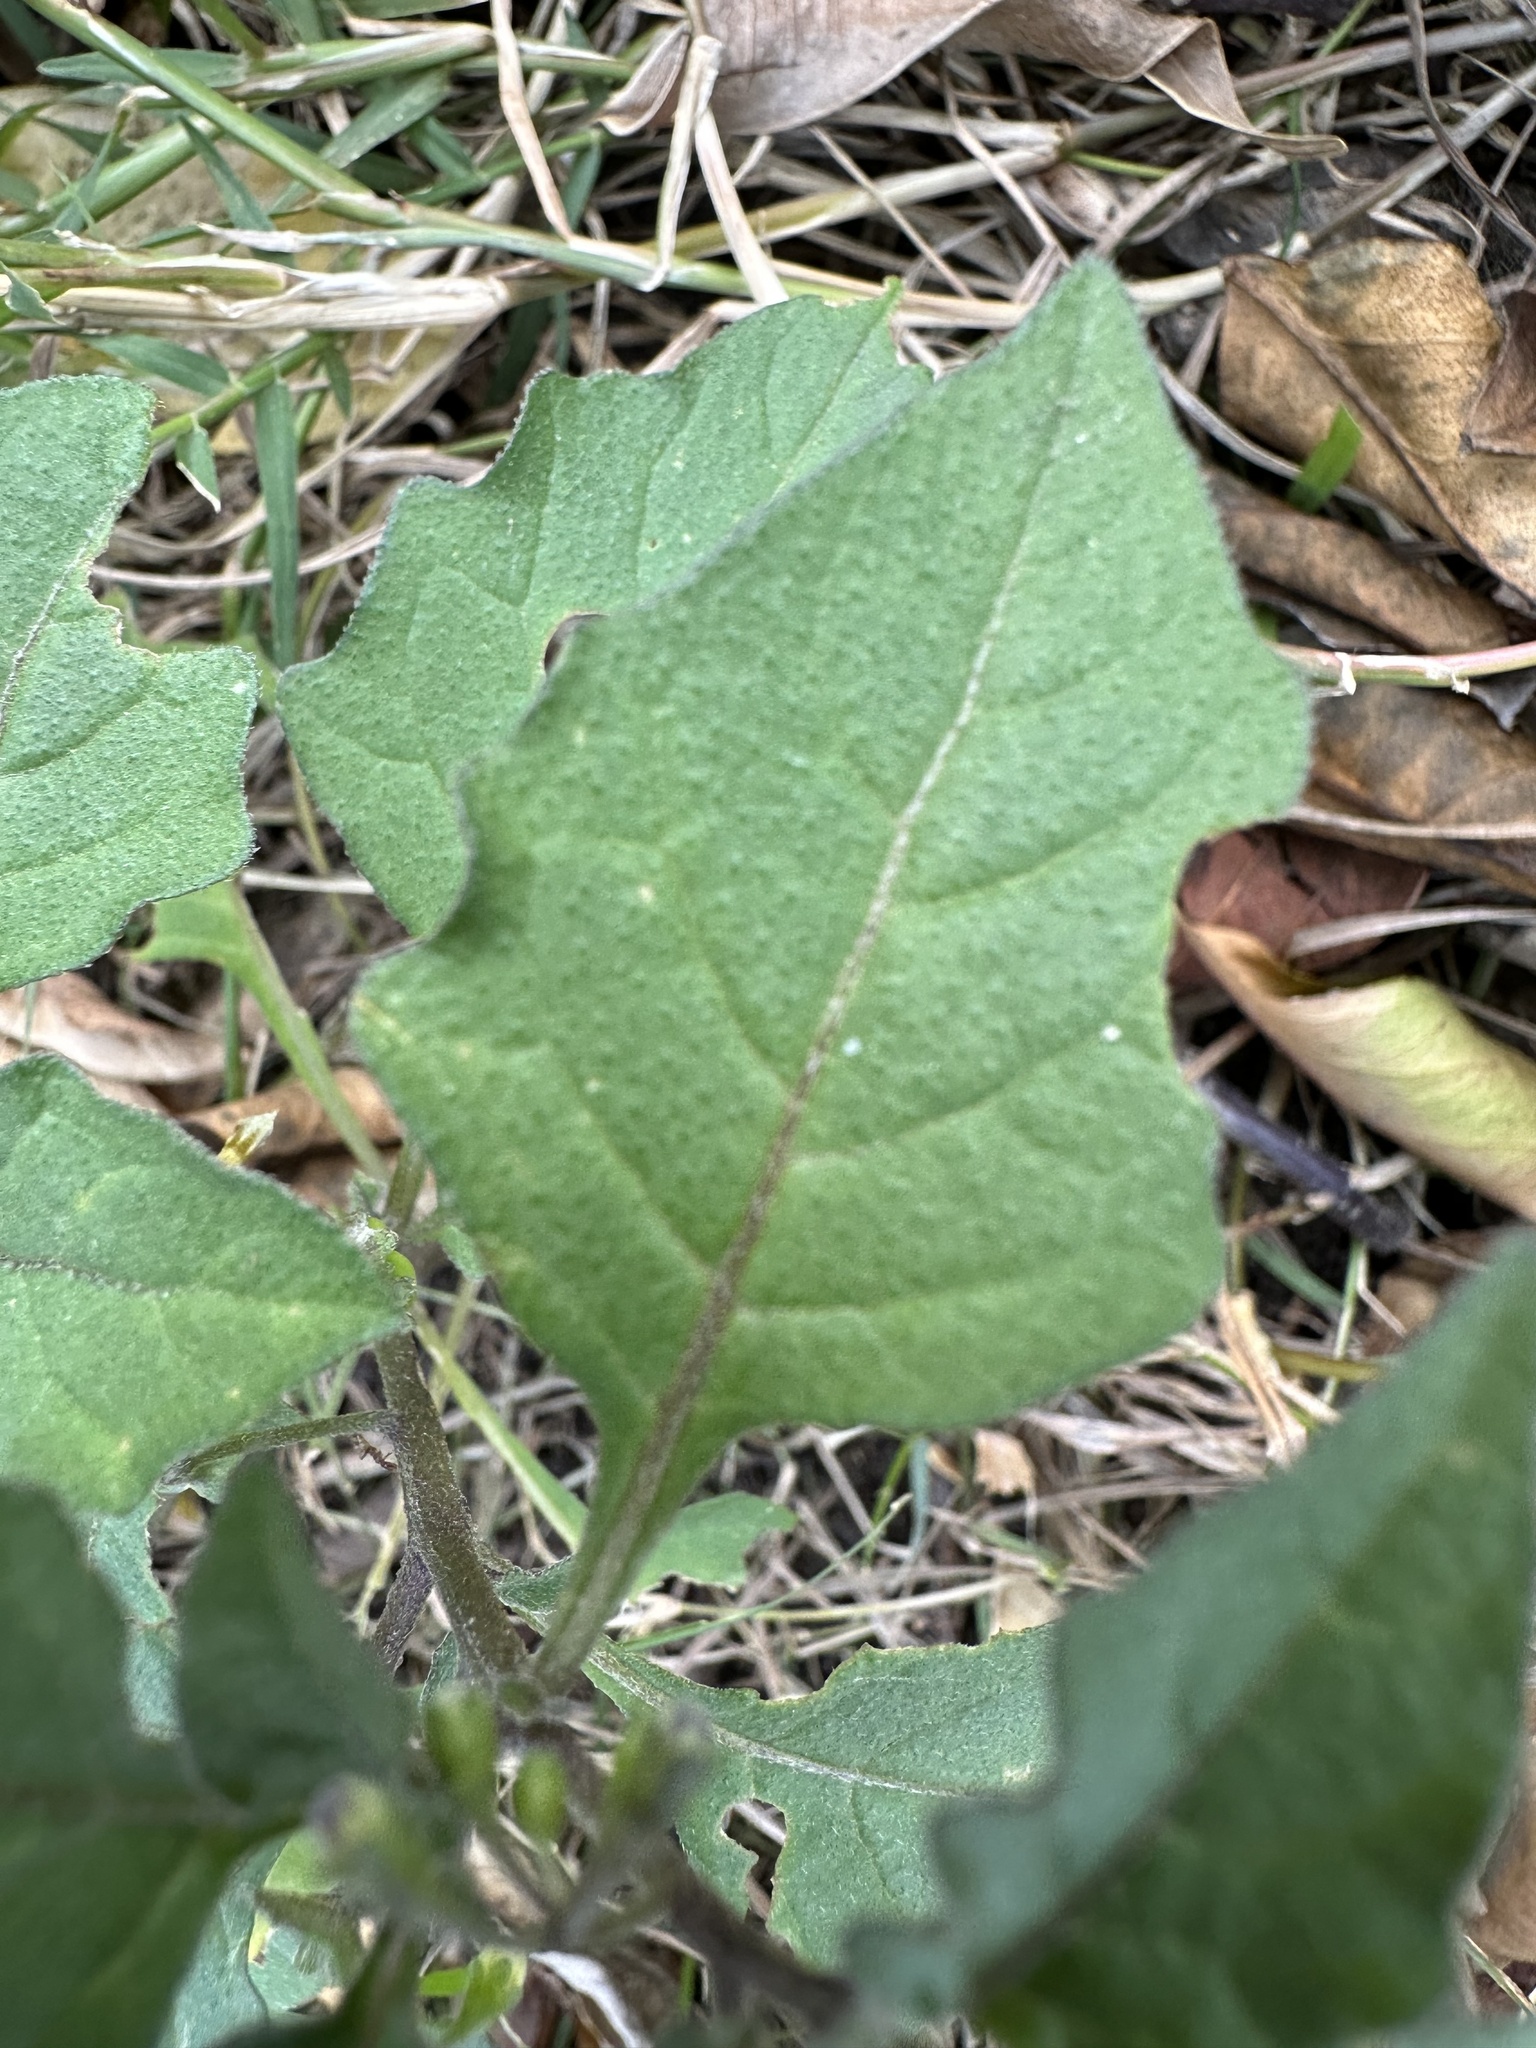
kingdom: Plantae
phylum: Tracheophyta
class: Magnoliopsida
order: Solanales
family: Solanaceae
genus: Solanum
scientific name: Solanum nigrum
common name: Black nightshade
